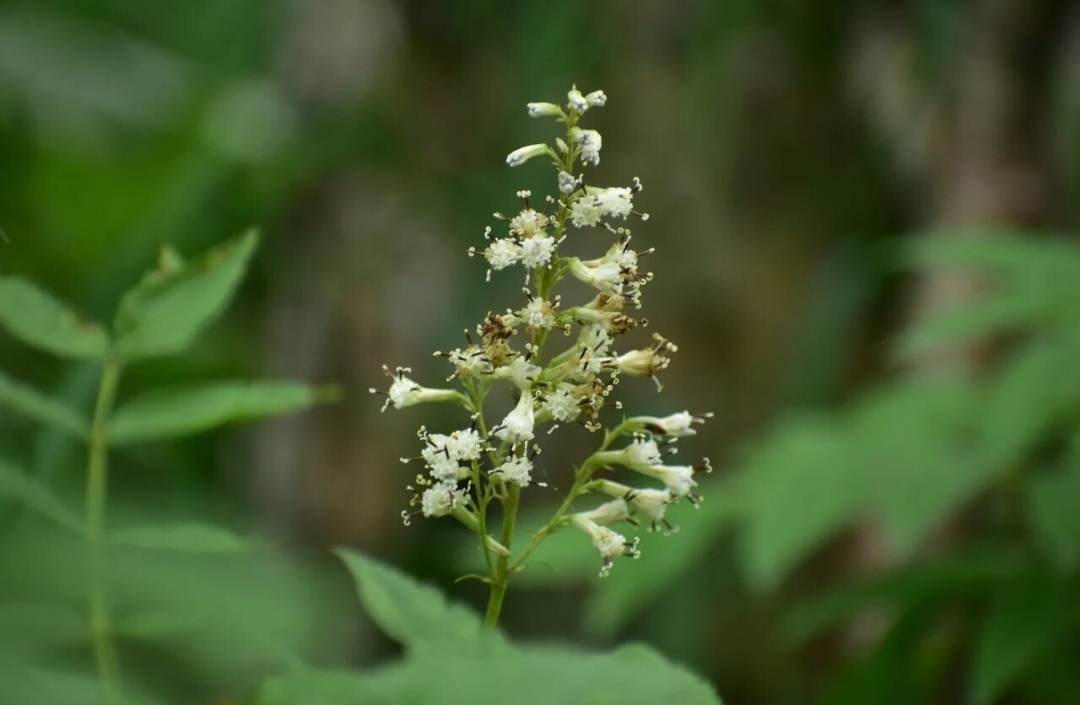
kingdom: Plantae
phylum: Tracheophyta
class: Magnoliopsida
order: Asterales
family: Asteraceae
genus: Parasenecio
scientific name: Parasenecio hastatus
